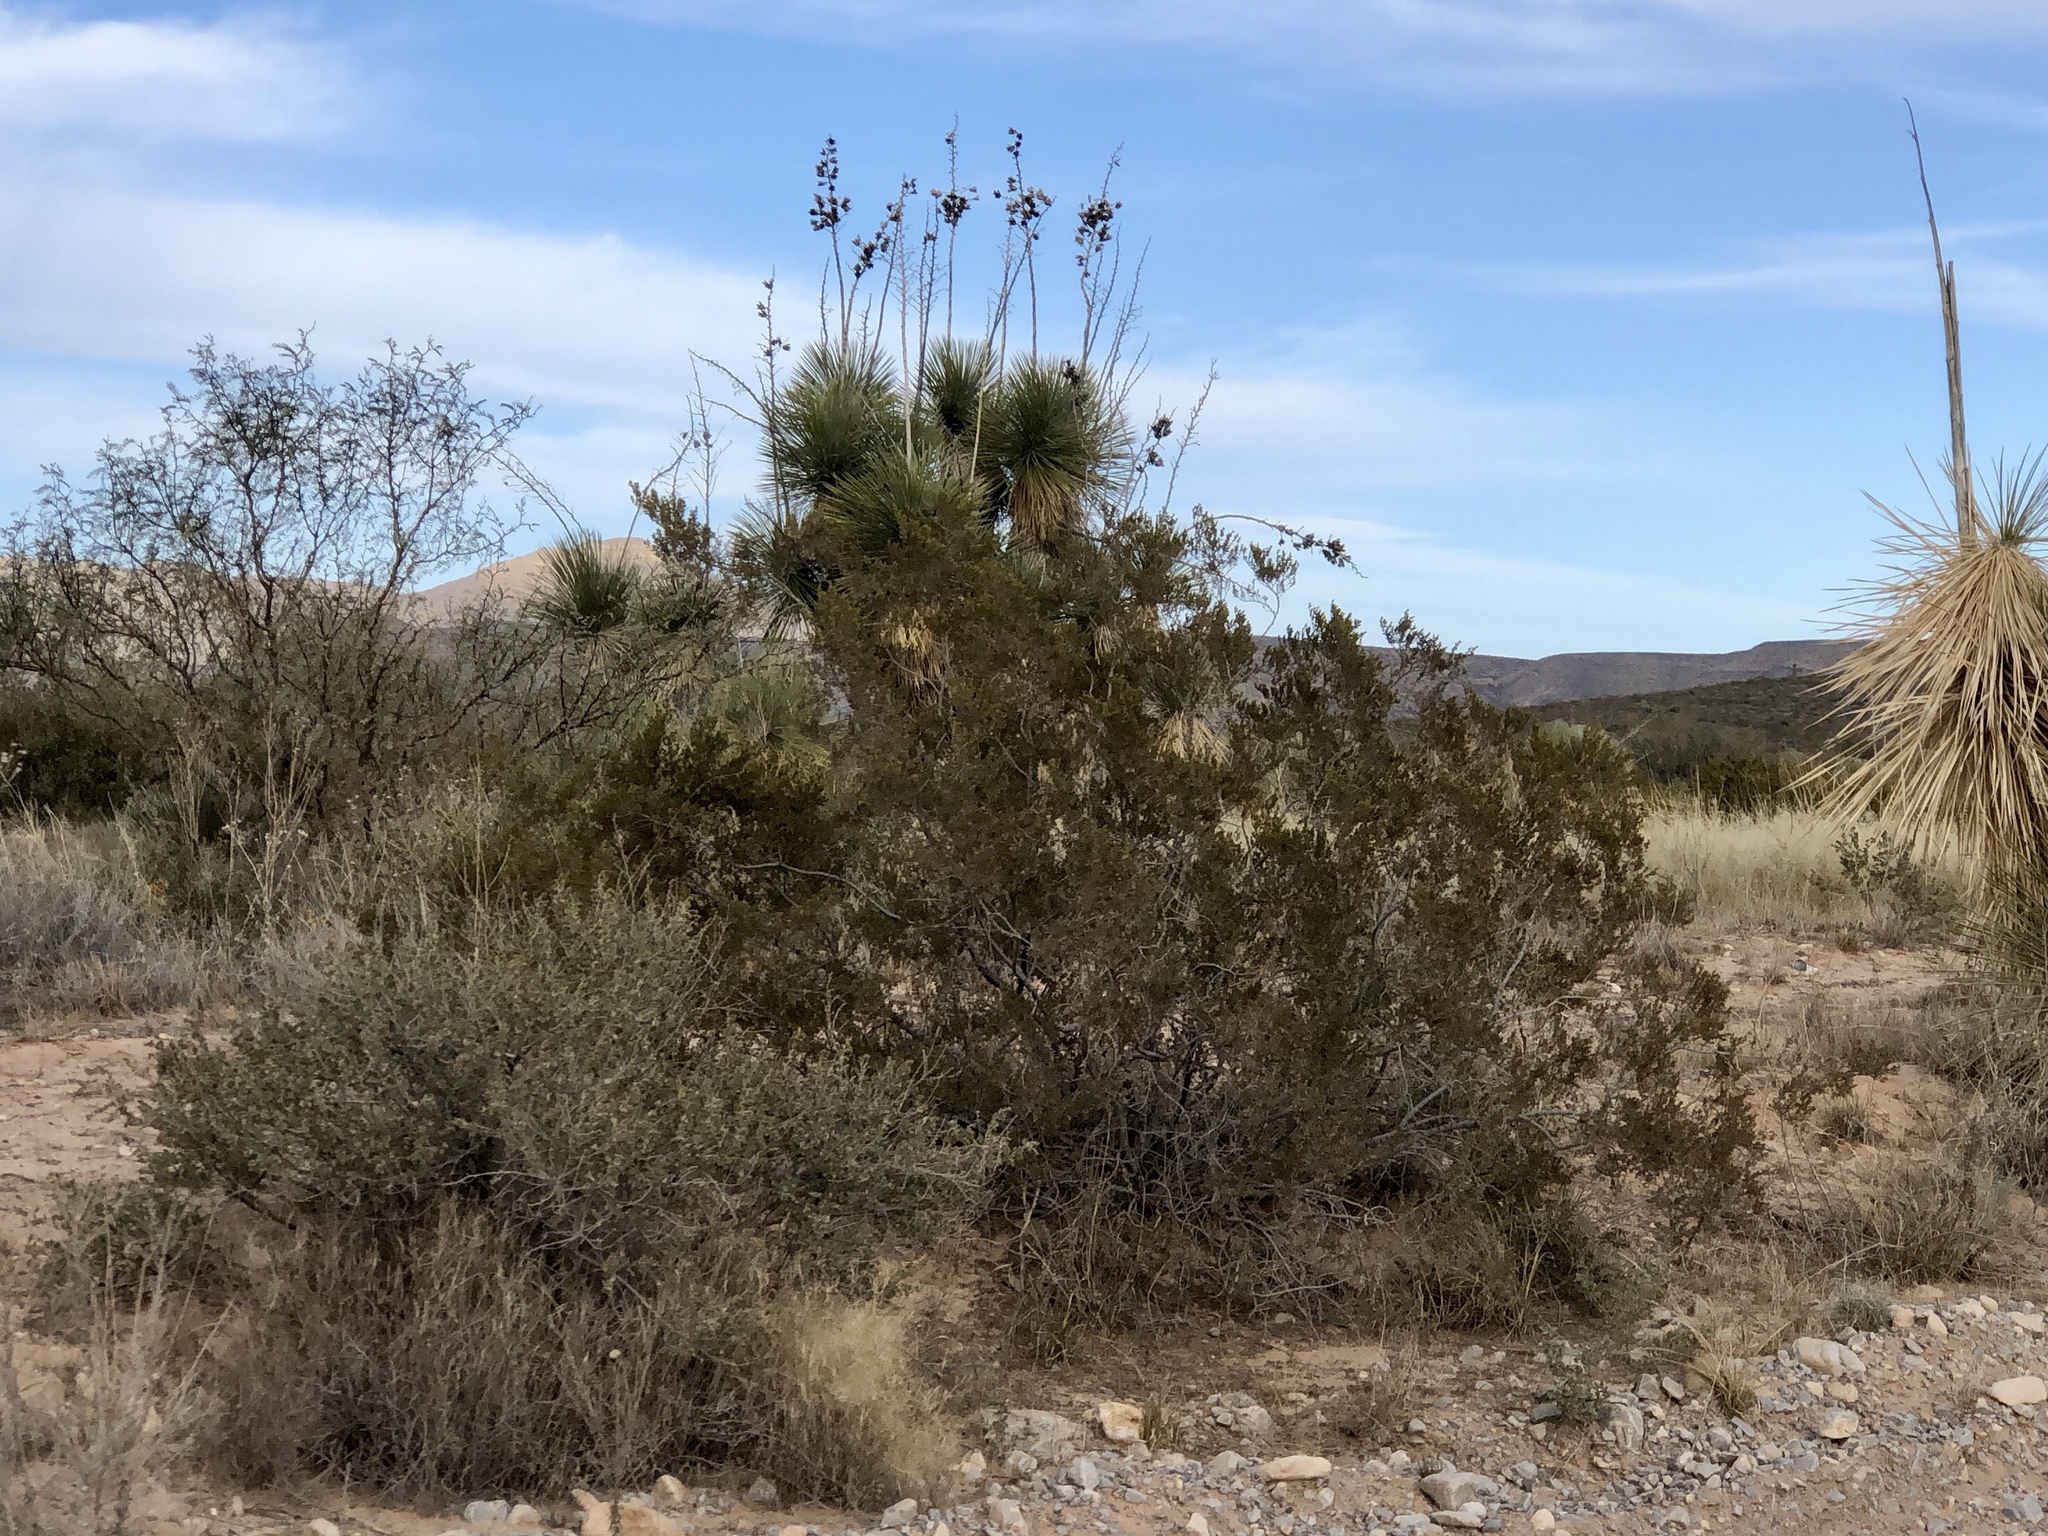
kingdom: Plantae
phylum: Tracheophyta
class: Magnoliopsida
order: Zygophyllales
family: Zygophyllaceae
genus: Larrea
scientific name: Larrea tridentata
